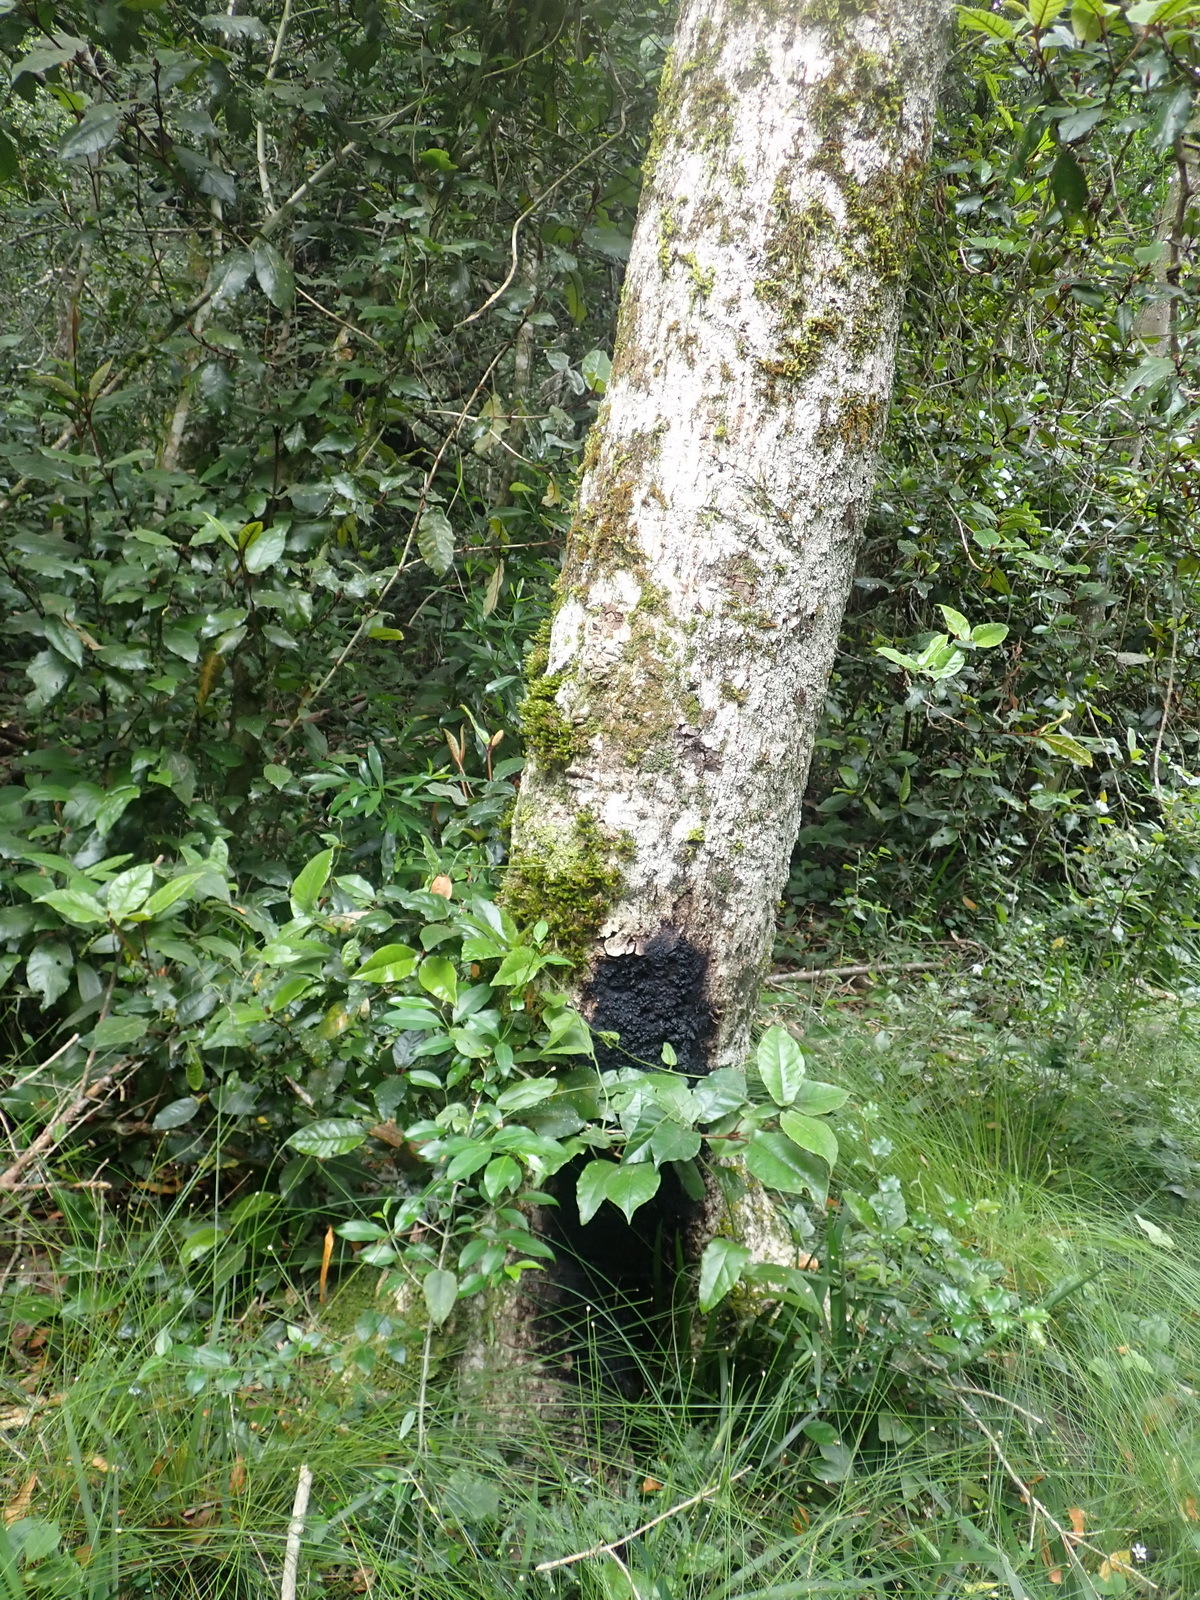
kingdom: Plantae
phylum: Tracheophyta
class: Magnoliopsida
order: Lamiales
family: Oleaceae
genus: Olea
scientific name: Olea capensis
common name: Black ironwood
